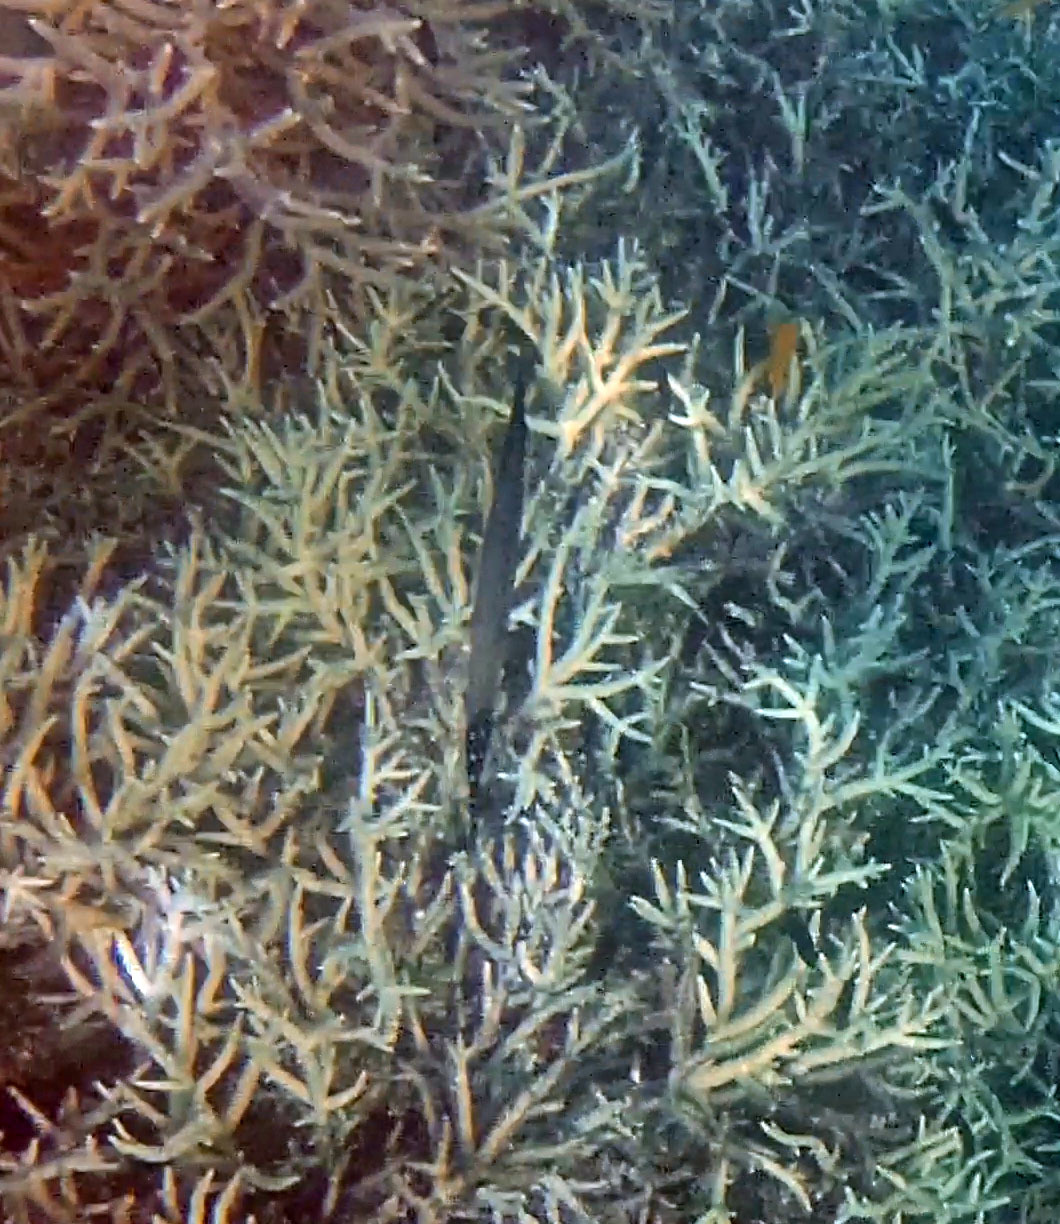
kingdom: Animalia
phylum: Chordata
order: Syngnathiformes
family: Aulostomidae
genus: Aulostomus
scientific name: Aulostomus chinensis
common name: Chinese trumpetfish
